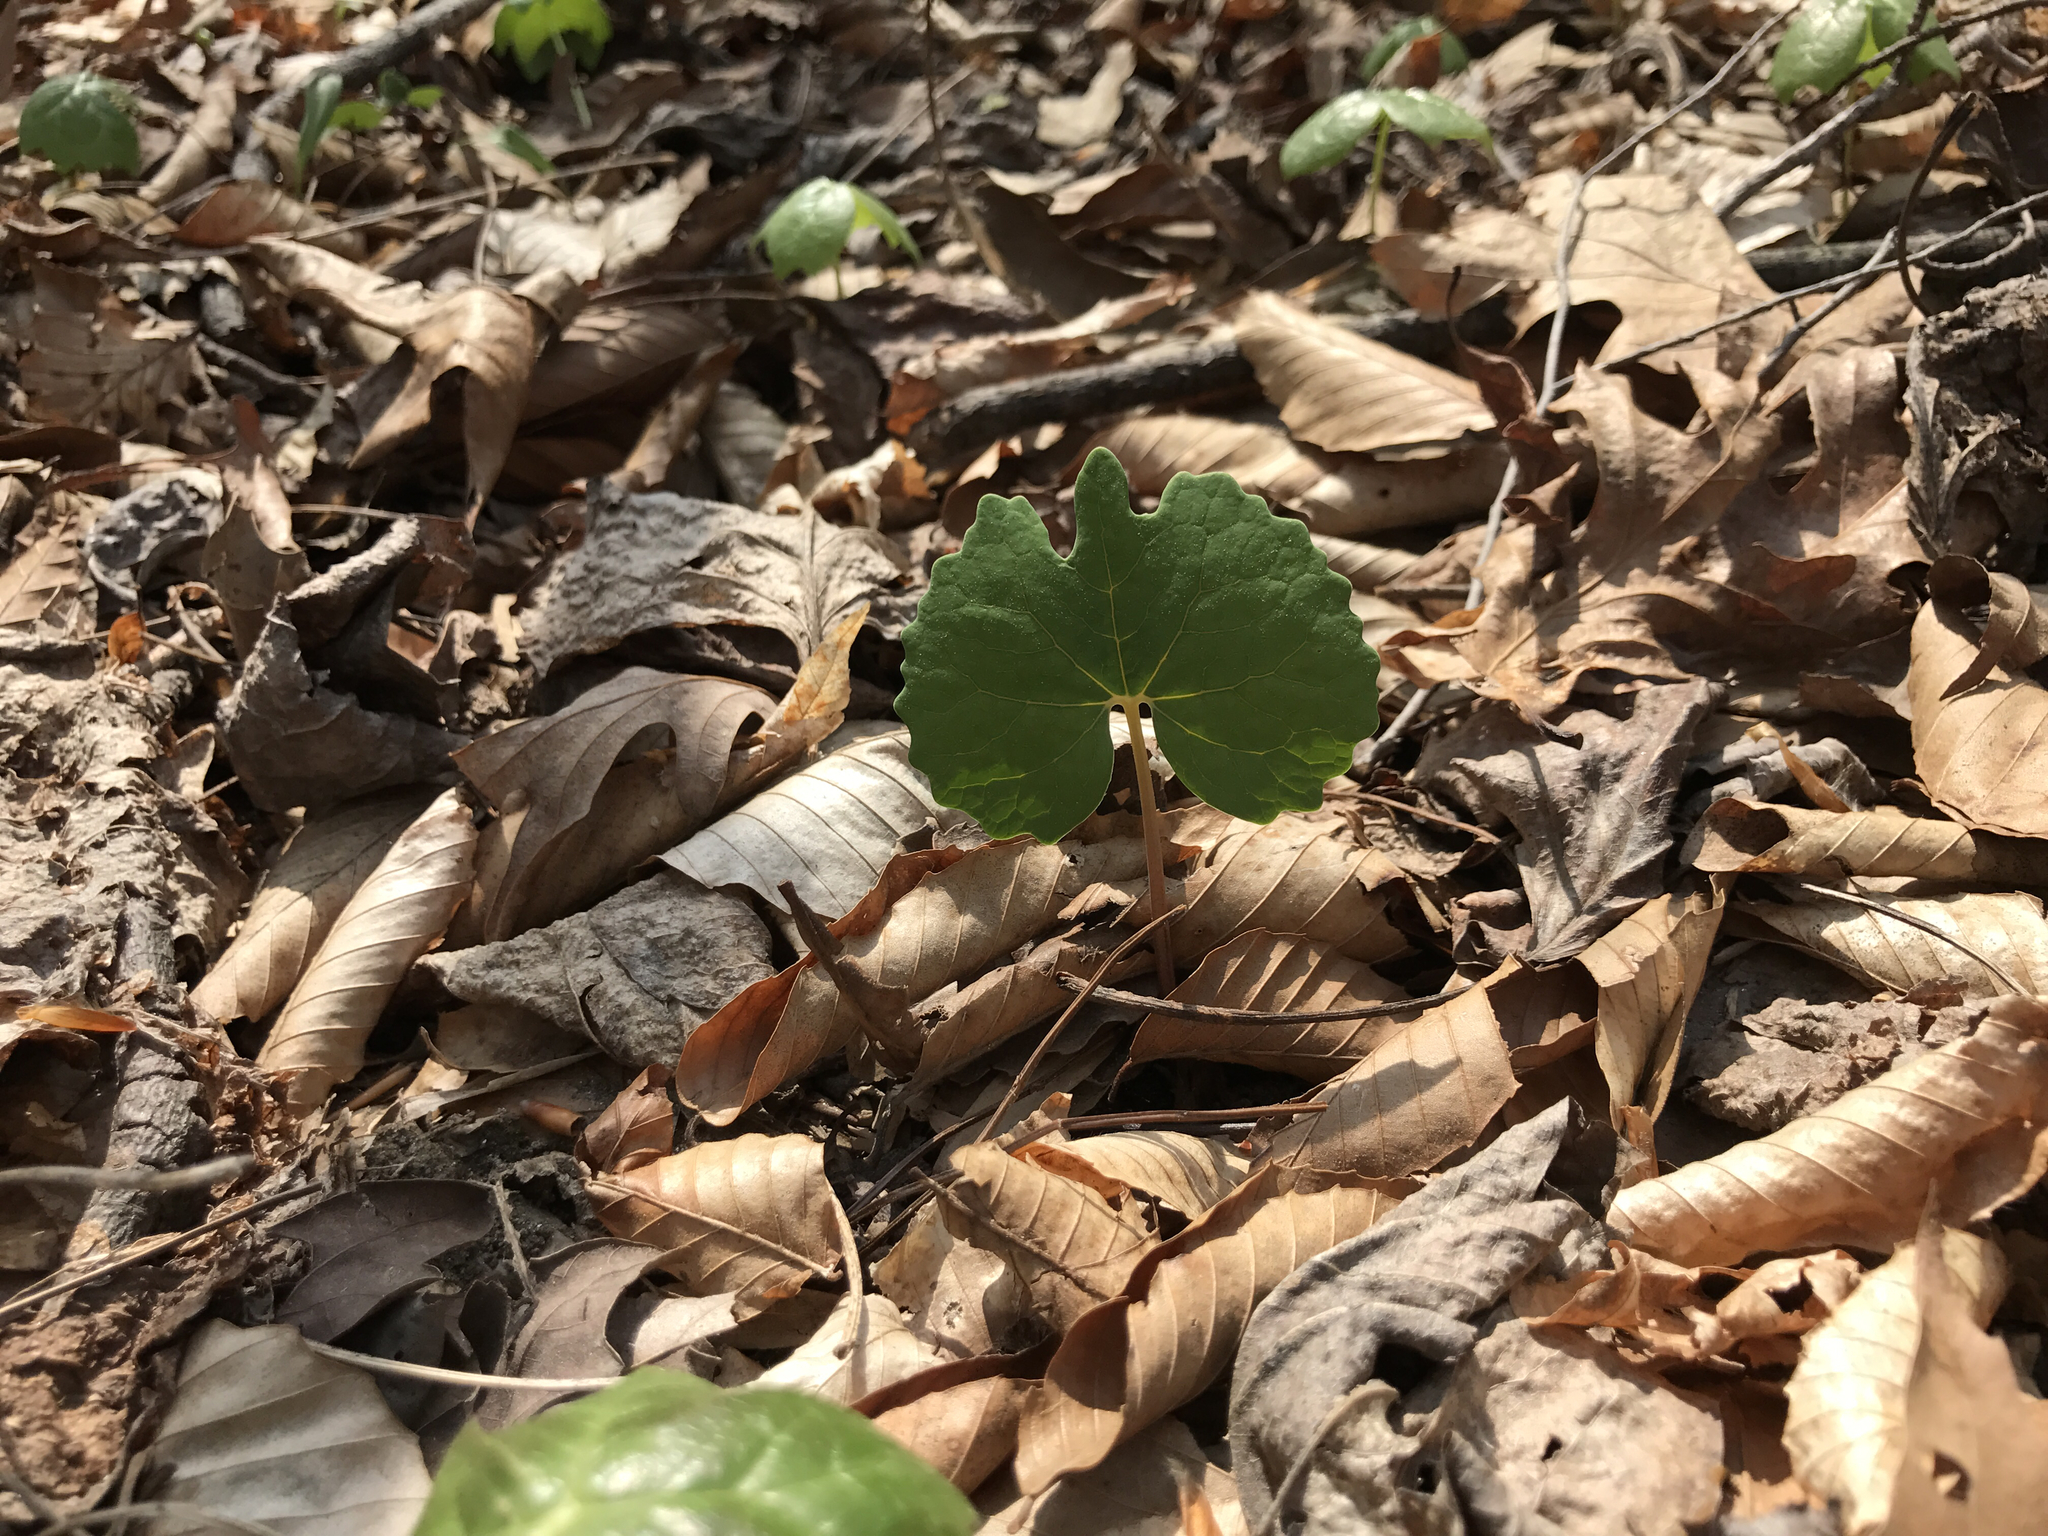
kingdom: Plantae
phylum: Tracheophyta
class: Magnoliopsida
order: Ranunculales
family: Papaveraceae
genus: Sanguinaria
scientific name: Sanguinaria canadensis
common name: Bloodroot
